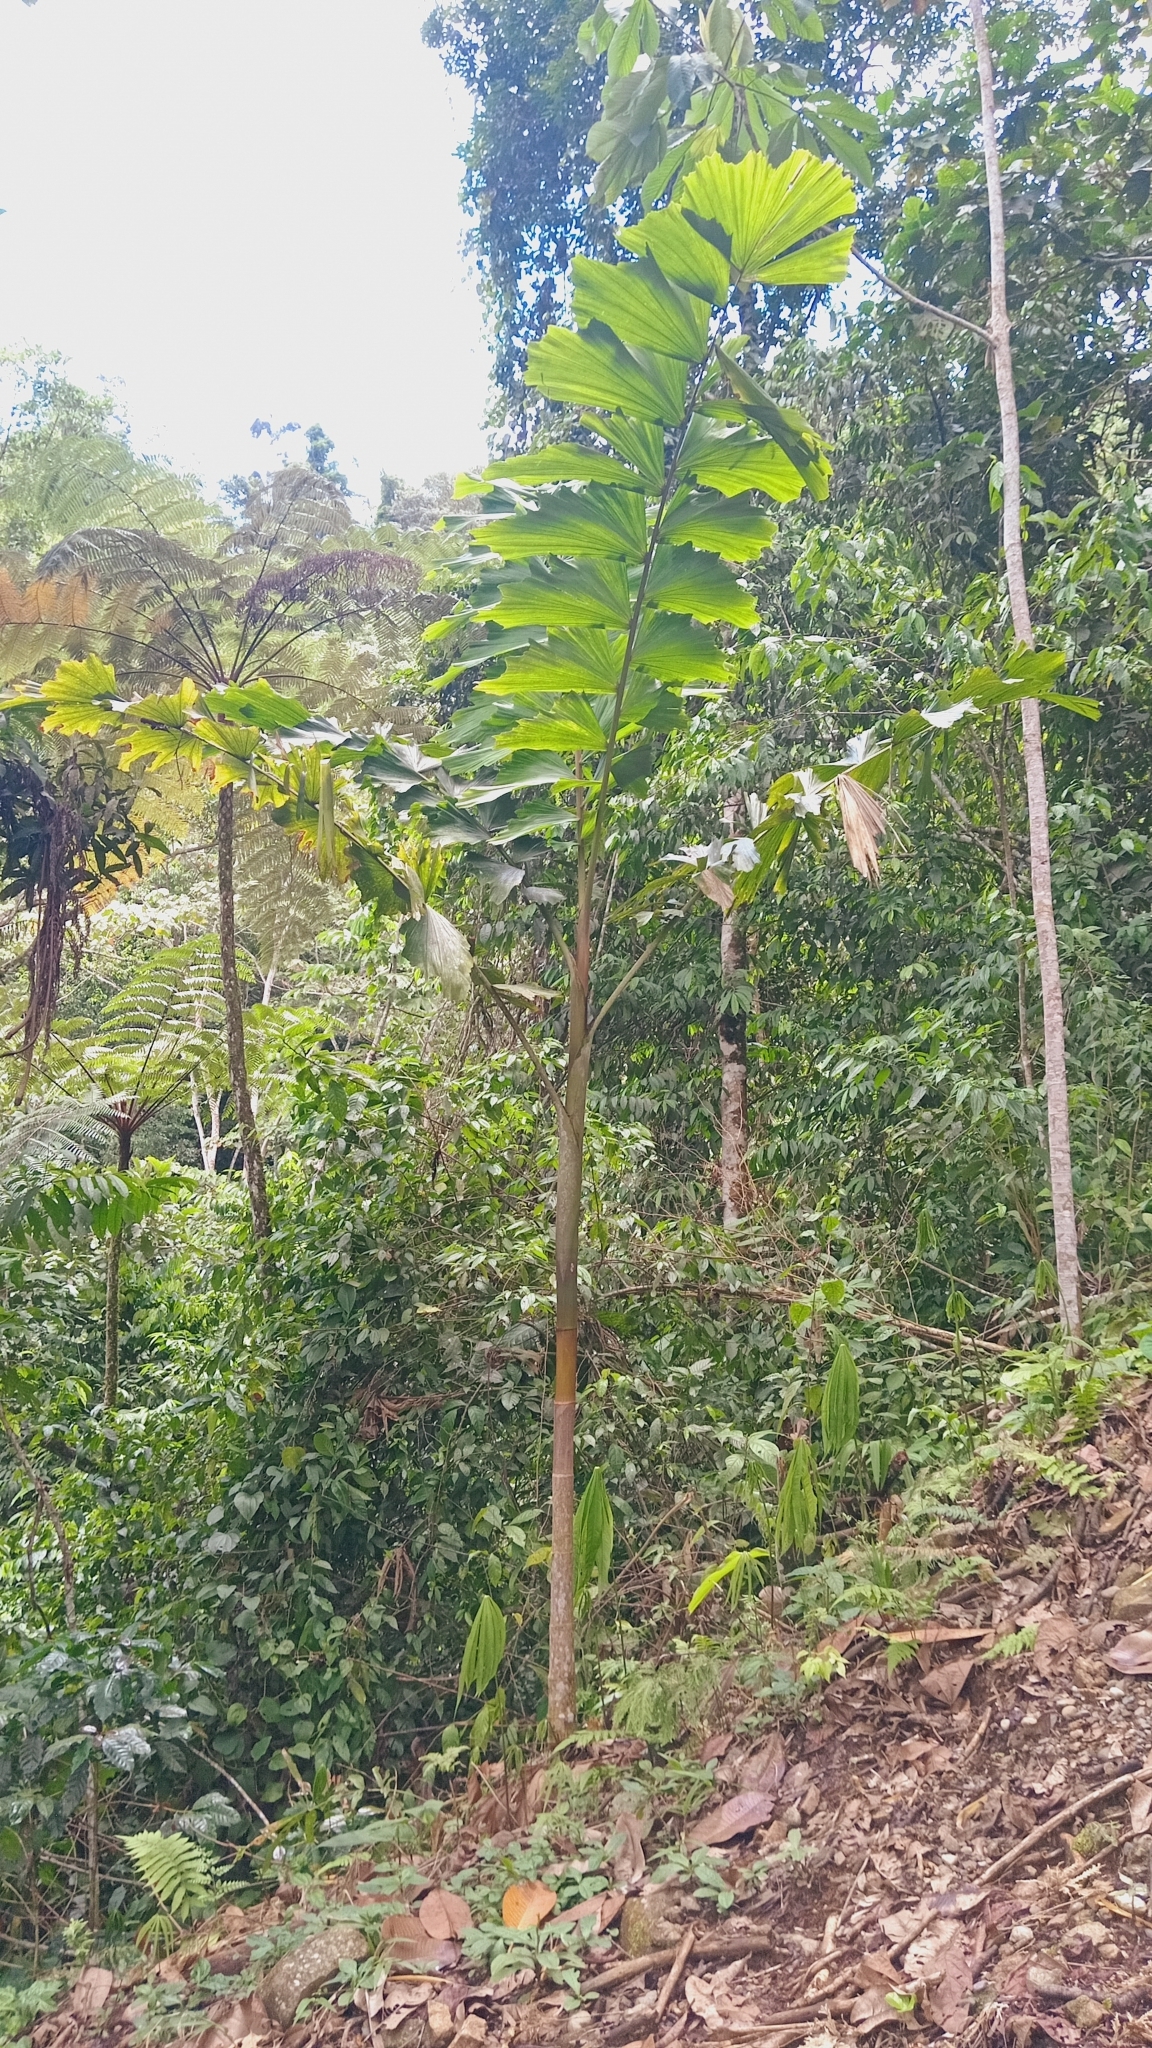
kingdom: Plantae
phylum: Tracheophyta
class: Liliopsida
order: Arecales
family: Arecaceae
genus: Iriartea
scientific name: Iriartea deltoidea
